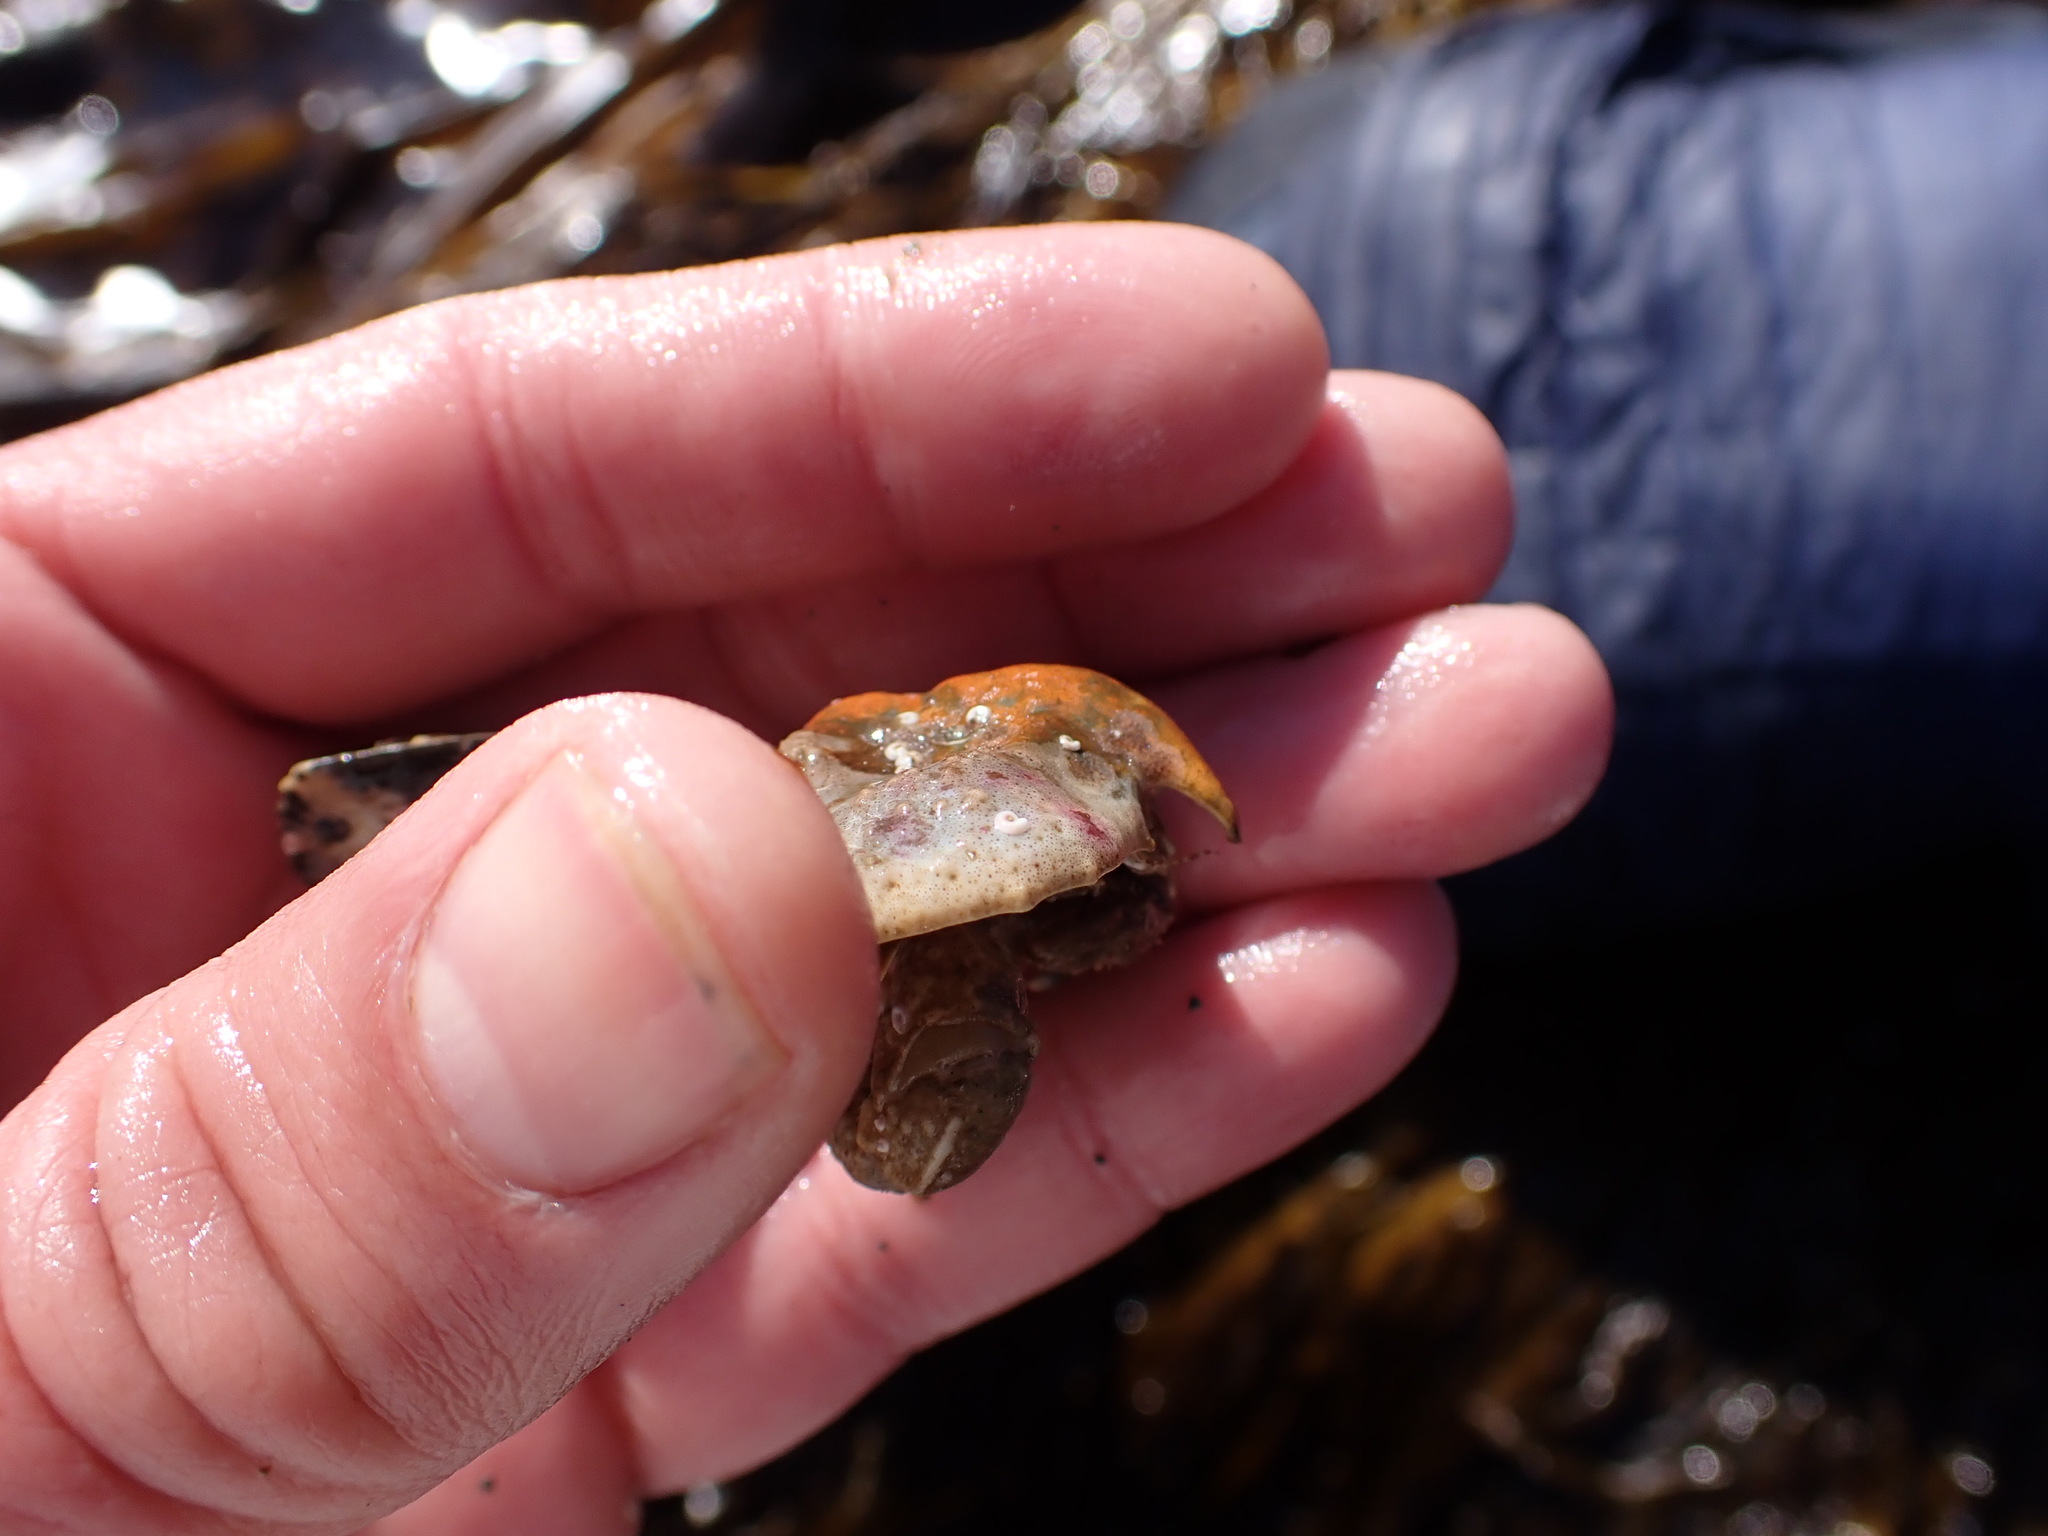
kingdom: Animalia
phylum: Arthropoda
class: Malacostraca
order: Decapoda
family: Lithodidae
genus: Cryptolithodes
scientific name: Cryptolithodes typicus
